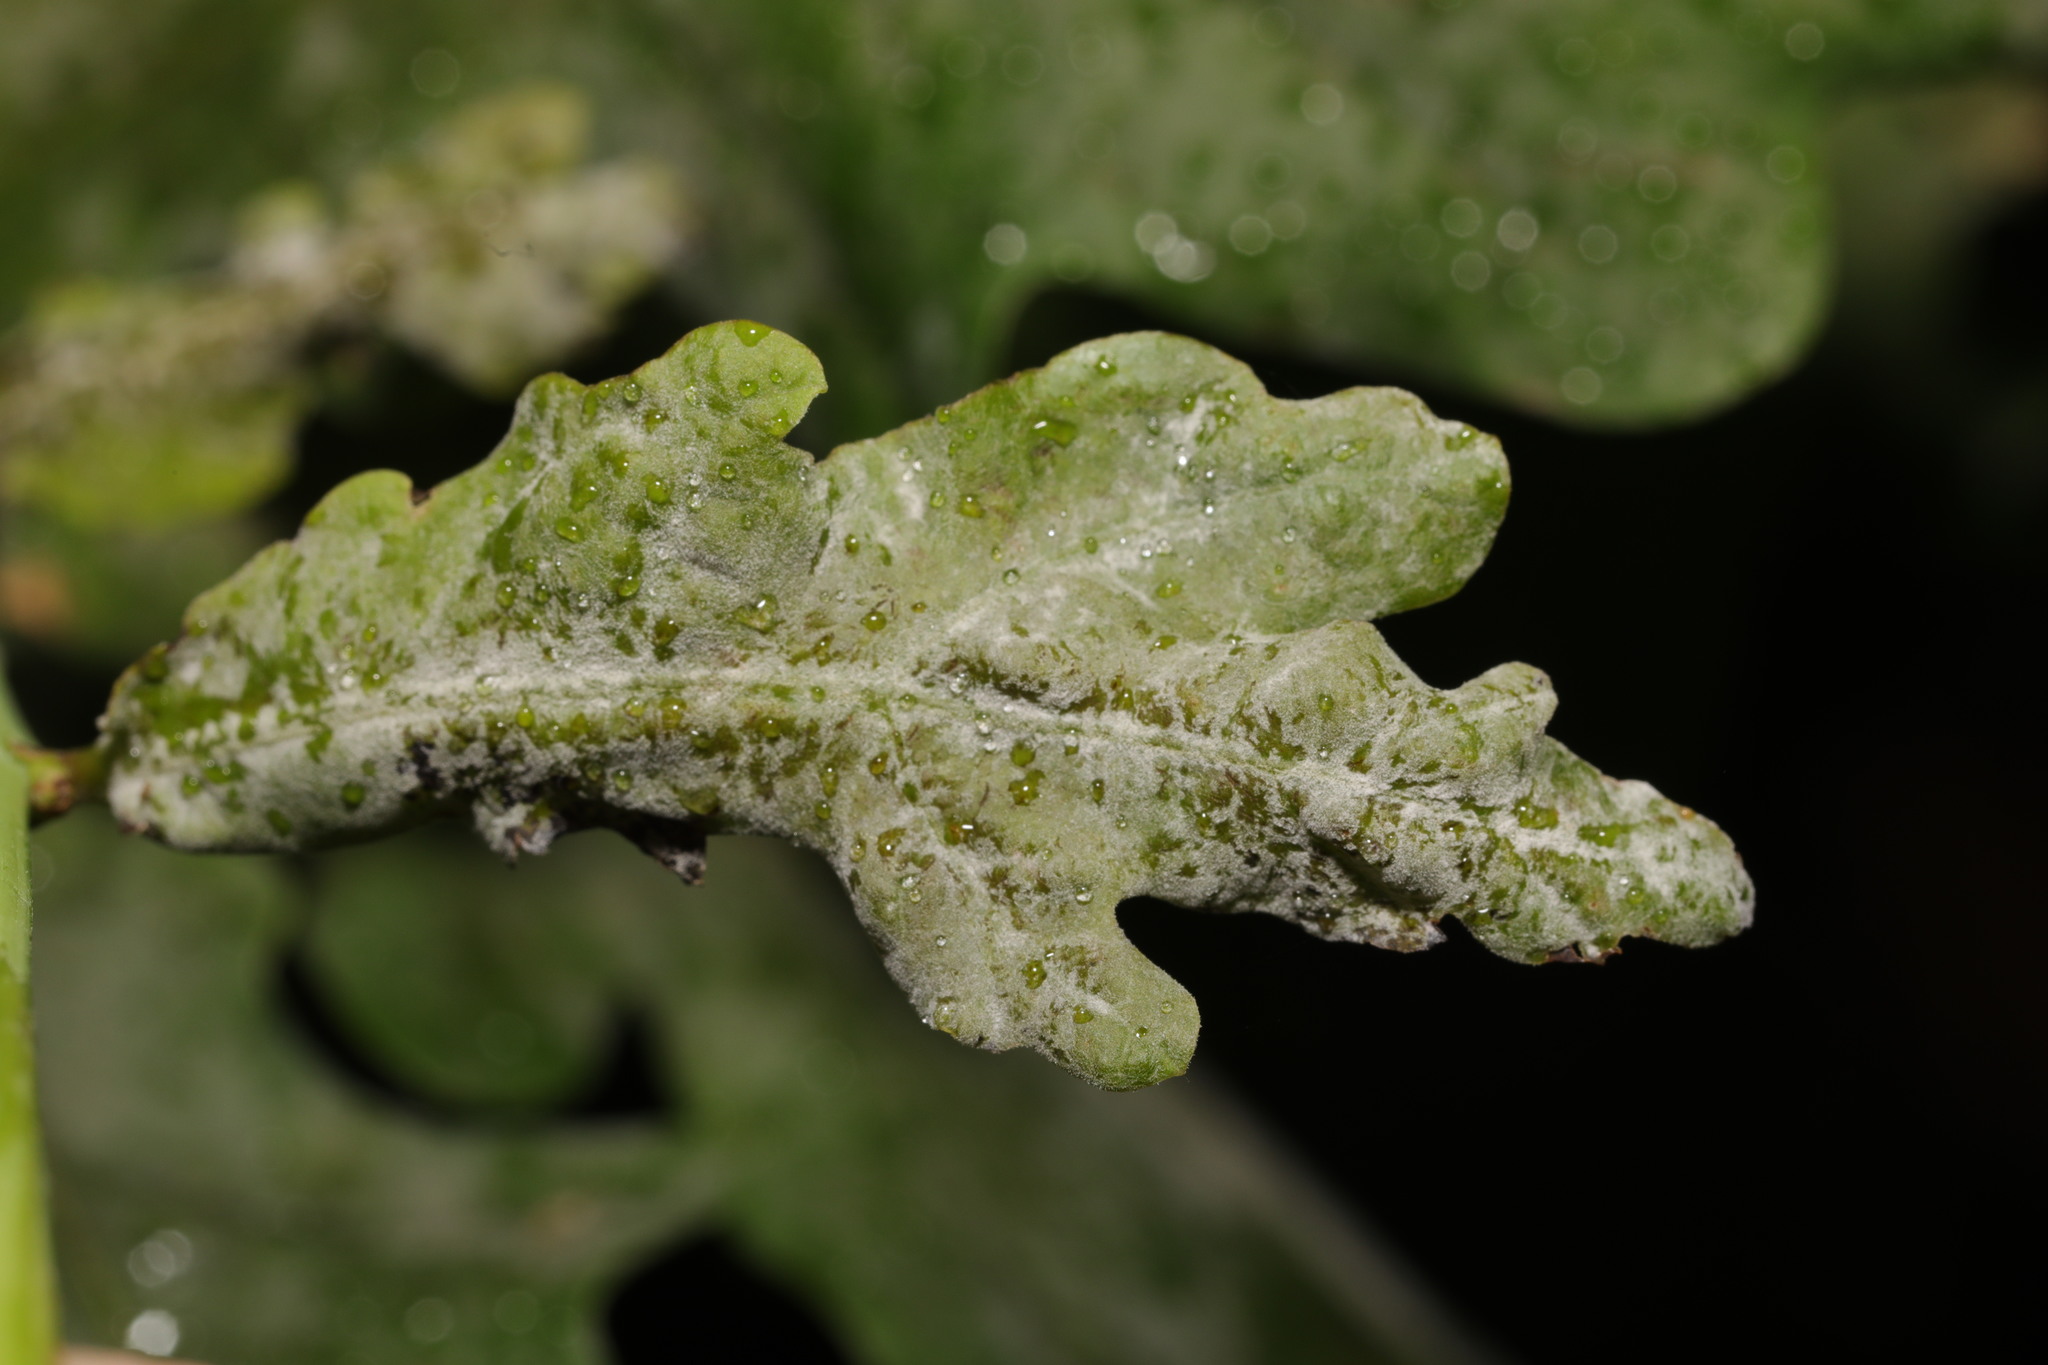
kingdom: Fungi
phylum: Ascomycota
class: Leotiomycetes
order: Helotiales
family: Erysiphaceae
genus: Erysiphe
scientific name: Erysiphe alphitoides
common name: Oak mildew
